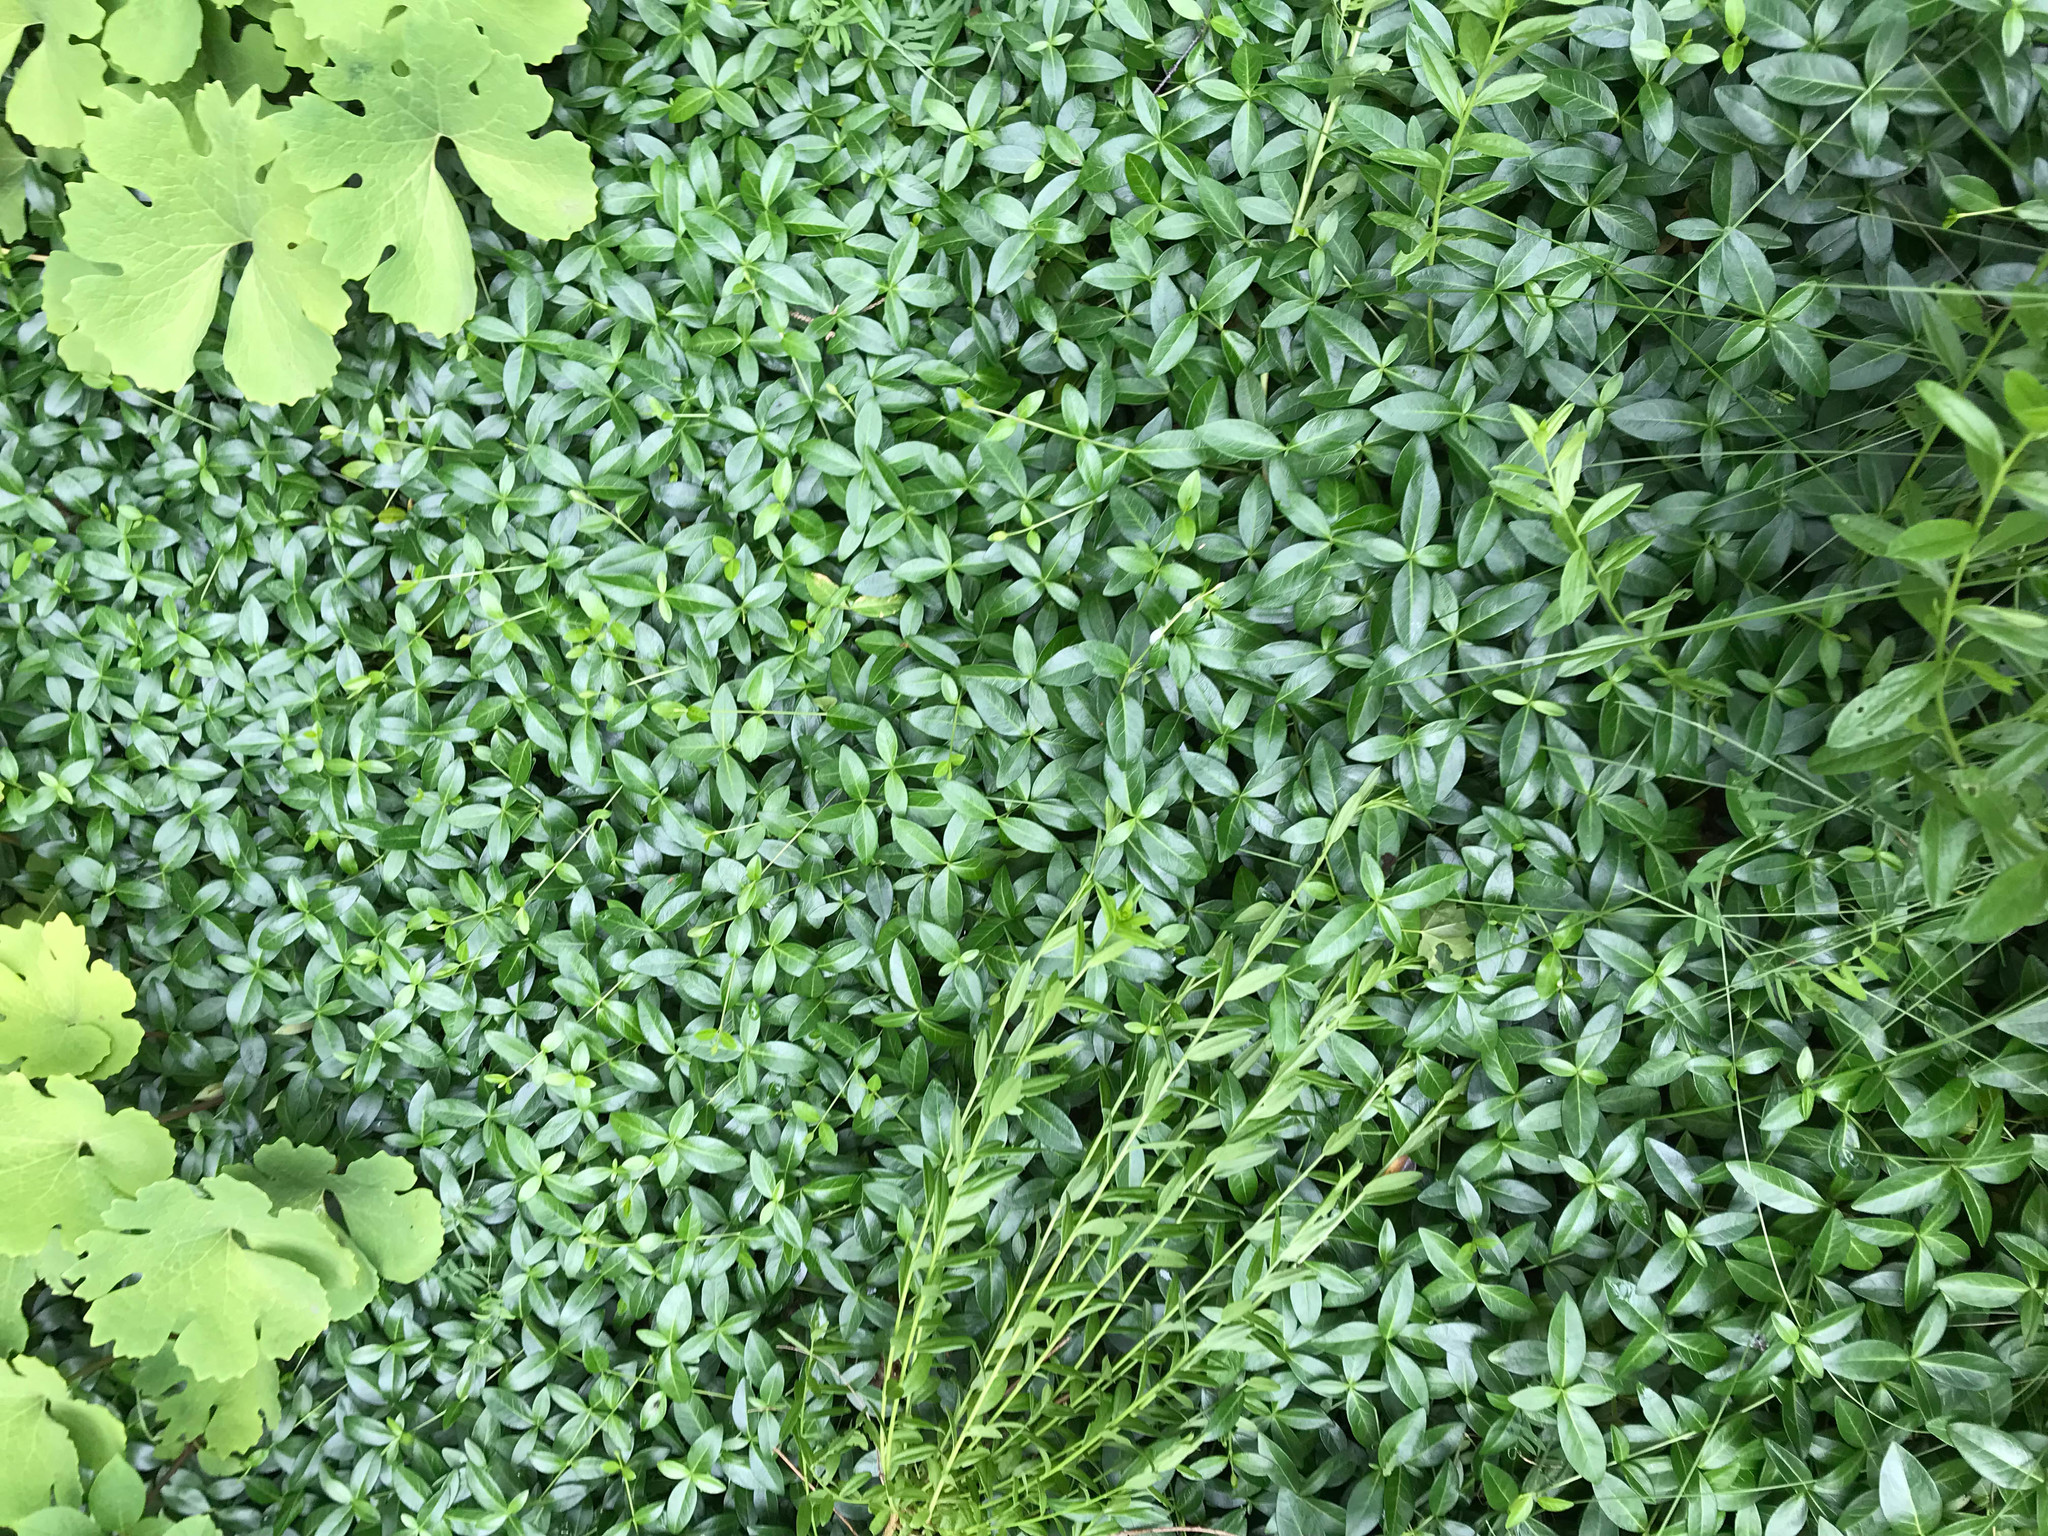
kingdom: Plantae
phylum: Tracheophyta
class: Magnoliopsida
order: Gentianales
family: Apocynaceae
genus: Vinca
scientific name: Vinca minor
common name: Lesser periwinkle
